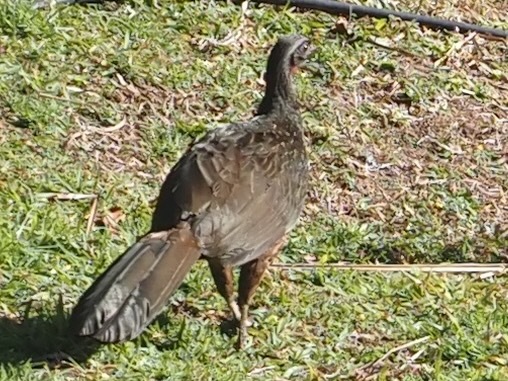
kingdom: Animalia
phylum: Chordata
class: Aves
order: Galliformes
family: Cracidae
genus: Penelope
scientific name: Penelope obscura
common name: Dusky-legged guan
